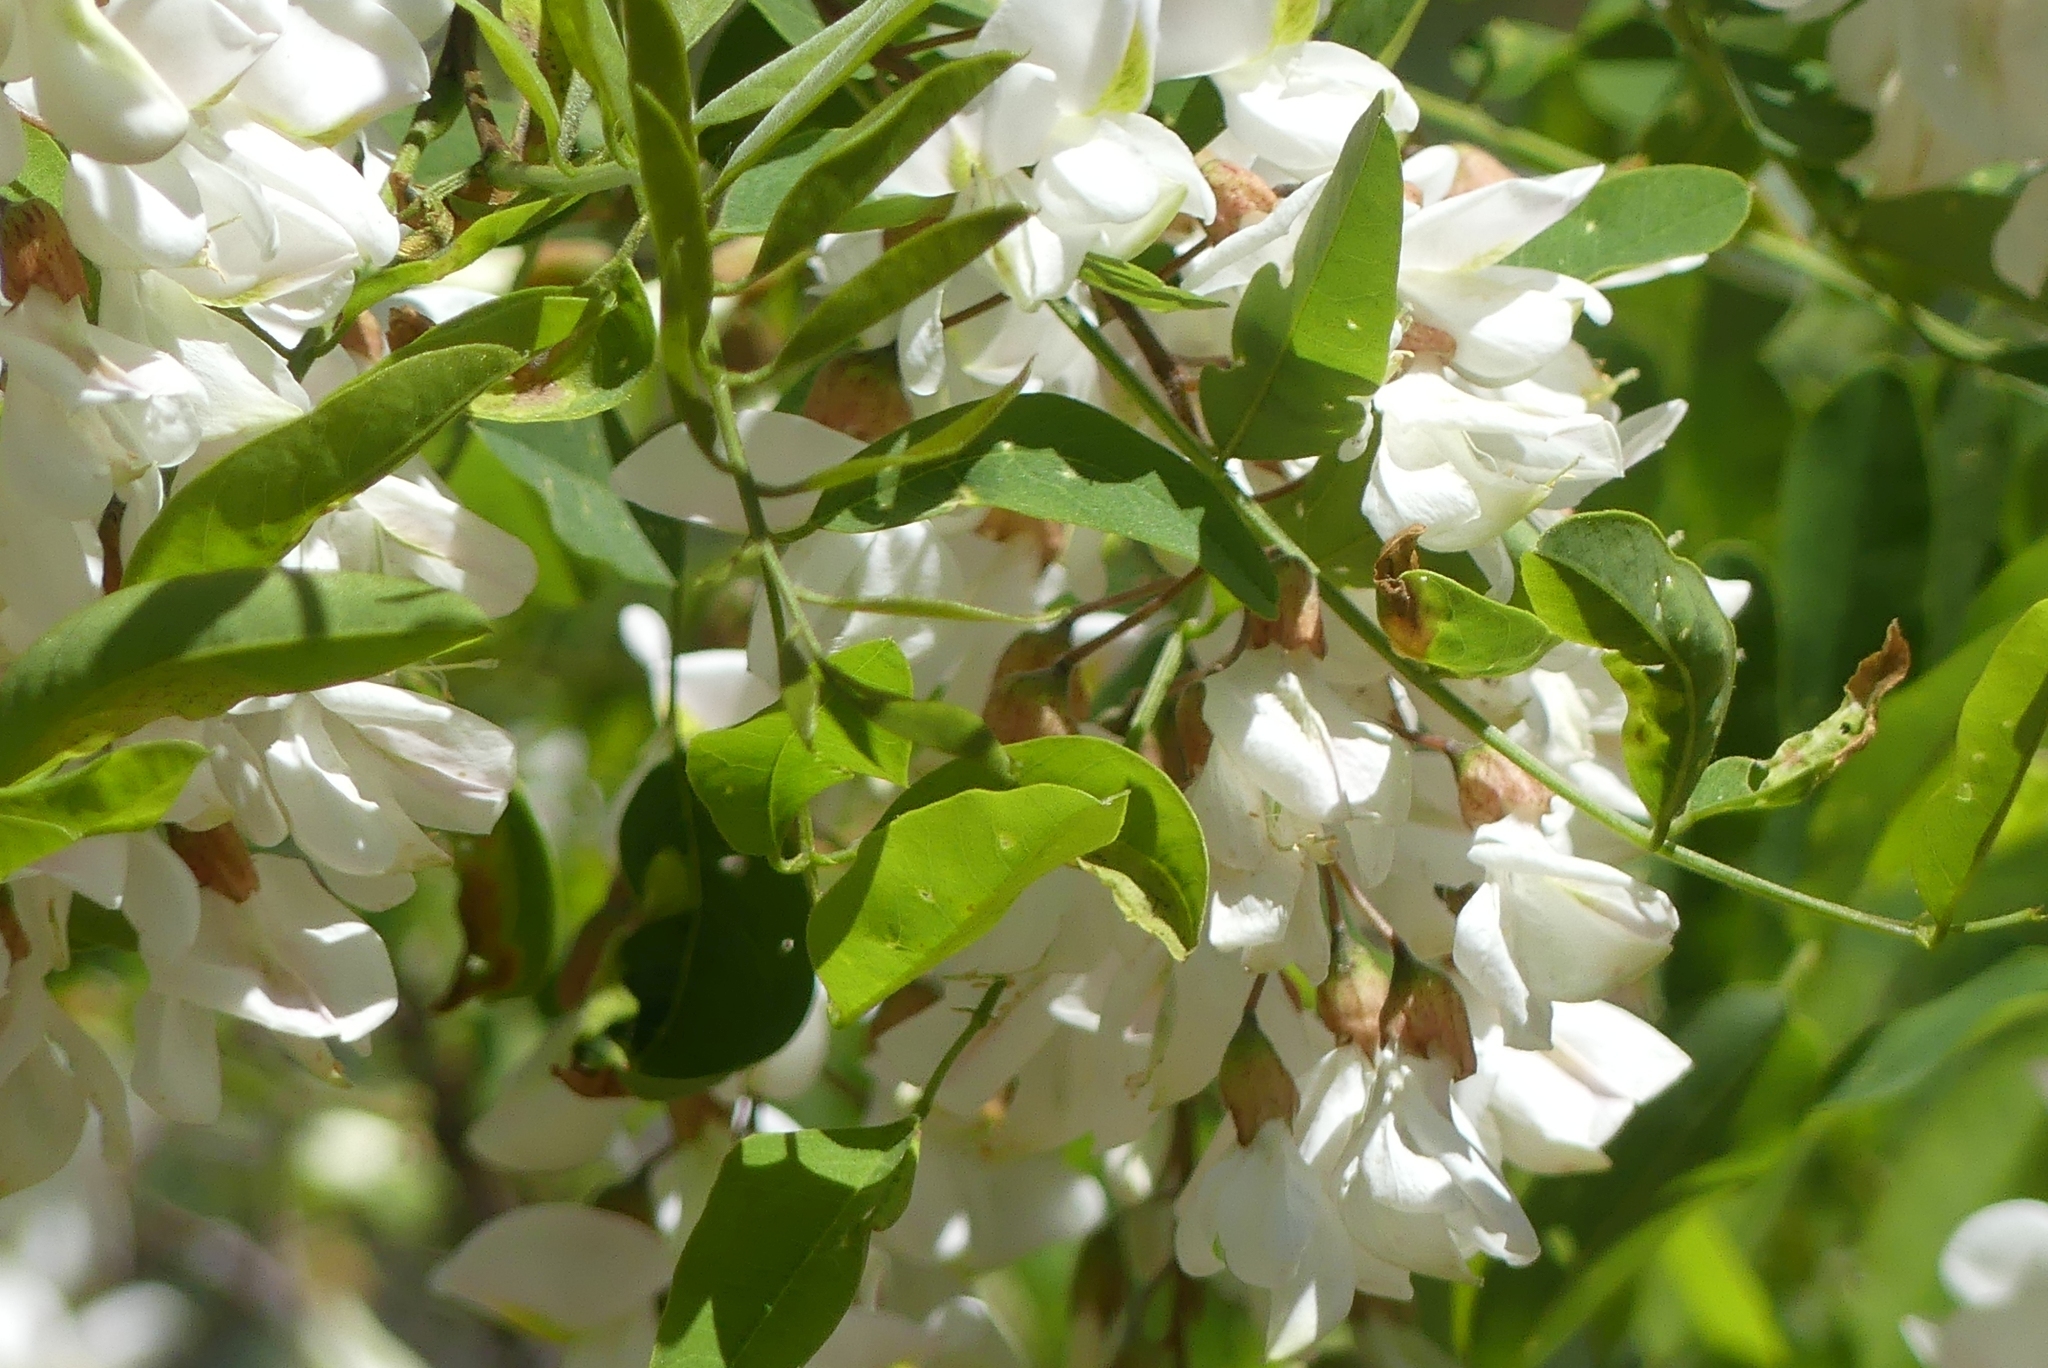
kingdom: Plantae
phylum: Tracheophyta
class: Magnoliopsida
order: Fabales
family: Fabaceae
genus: Robinia
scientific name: Robinia pseudoacacia
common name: Black locust
